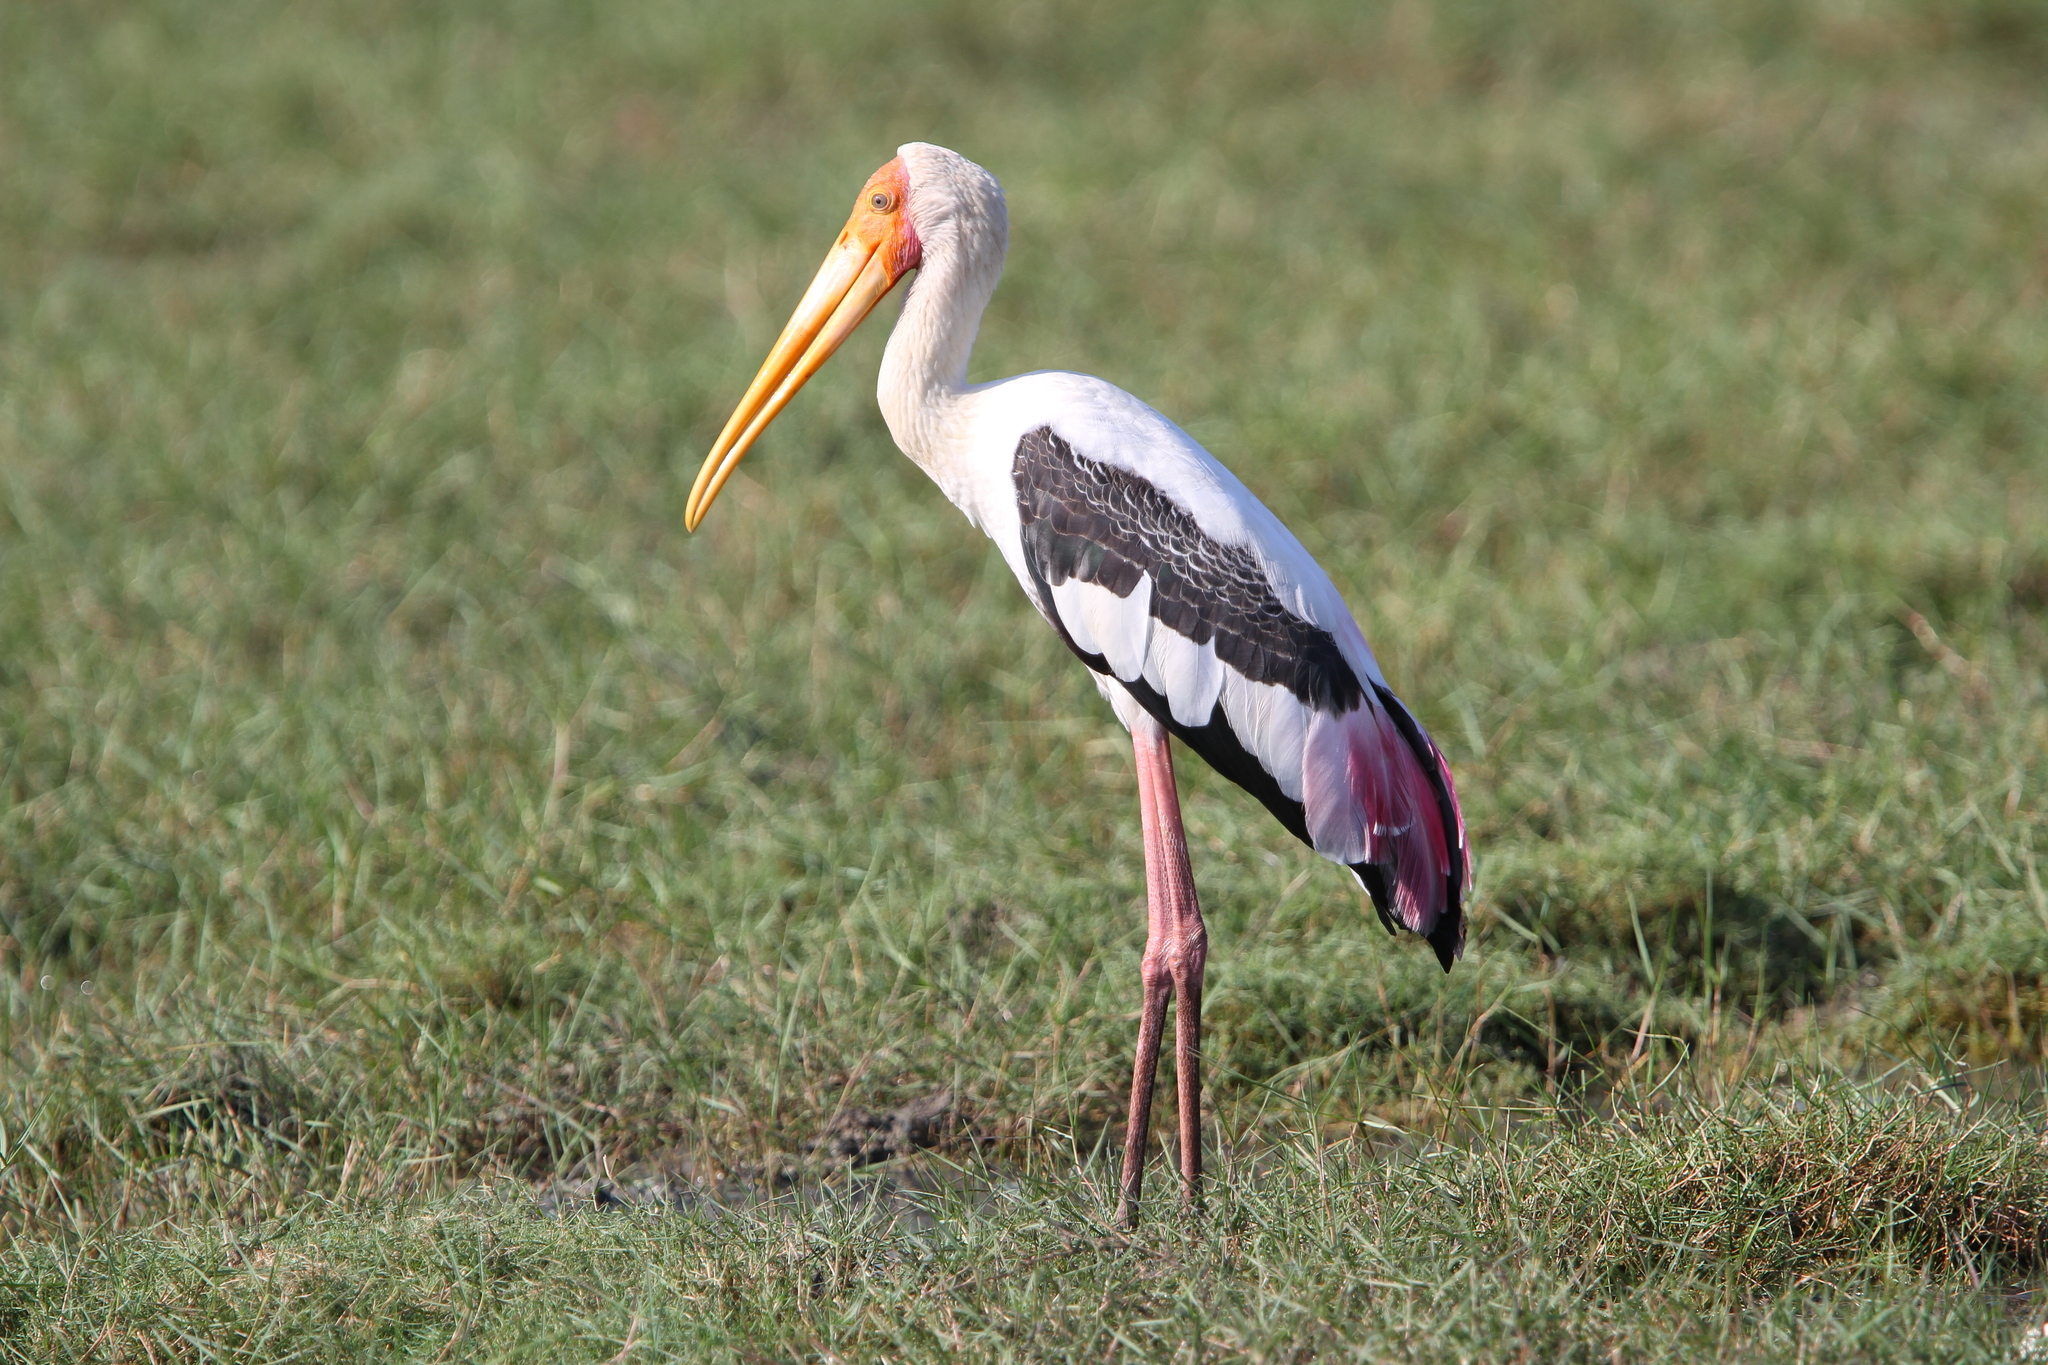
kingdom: Animalia
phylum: Chordata
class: Aves
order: Ciconiiformes
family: Ciconiidae
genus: Mycteria
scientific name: Mycteria leucocephala
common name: Painted stork
